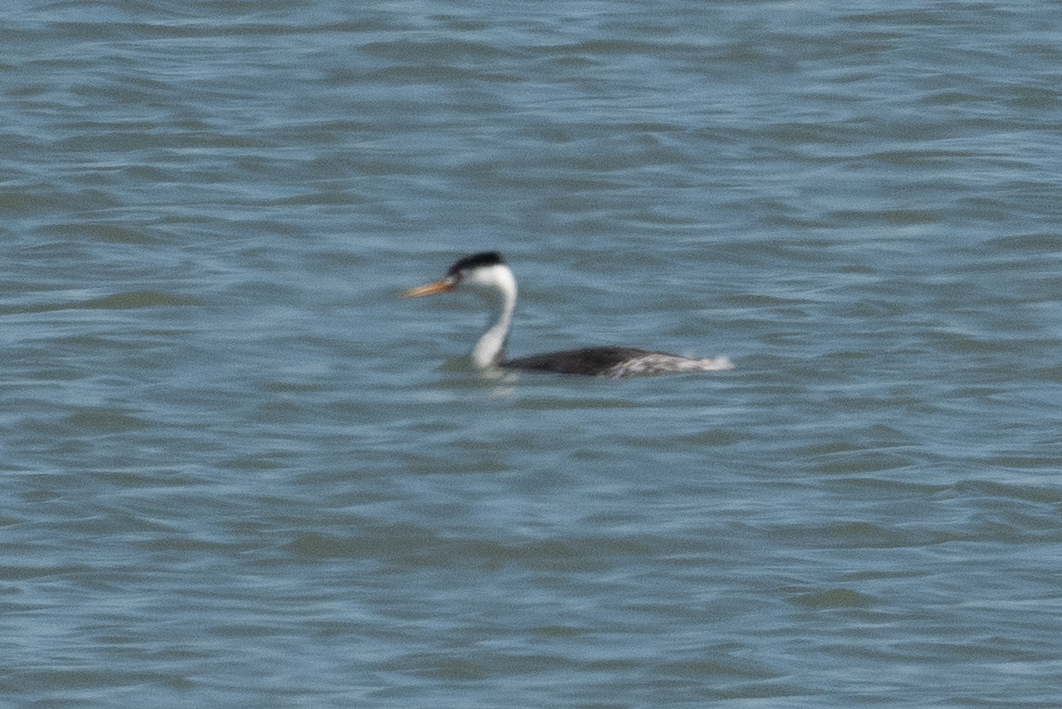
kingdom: Animalia
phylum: Chordata
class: Aves
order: Podicipediformes
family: Podicipedidae
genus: Aechmophorus
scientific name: Aechmophorus clarkii
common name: Clark's grebe
